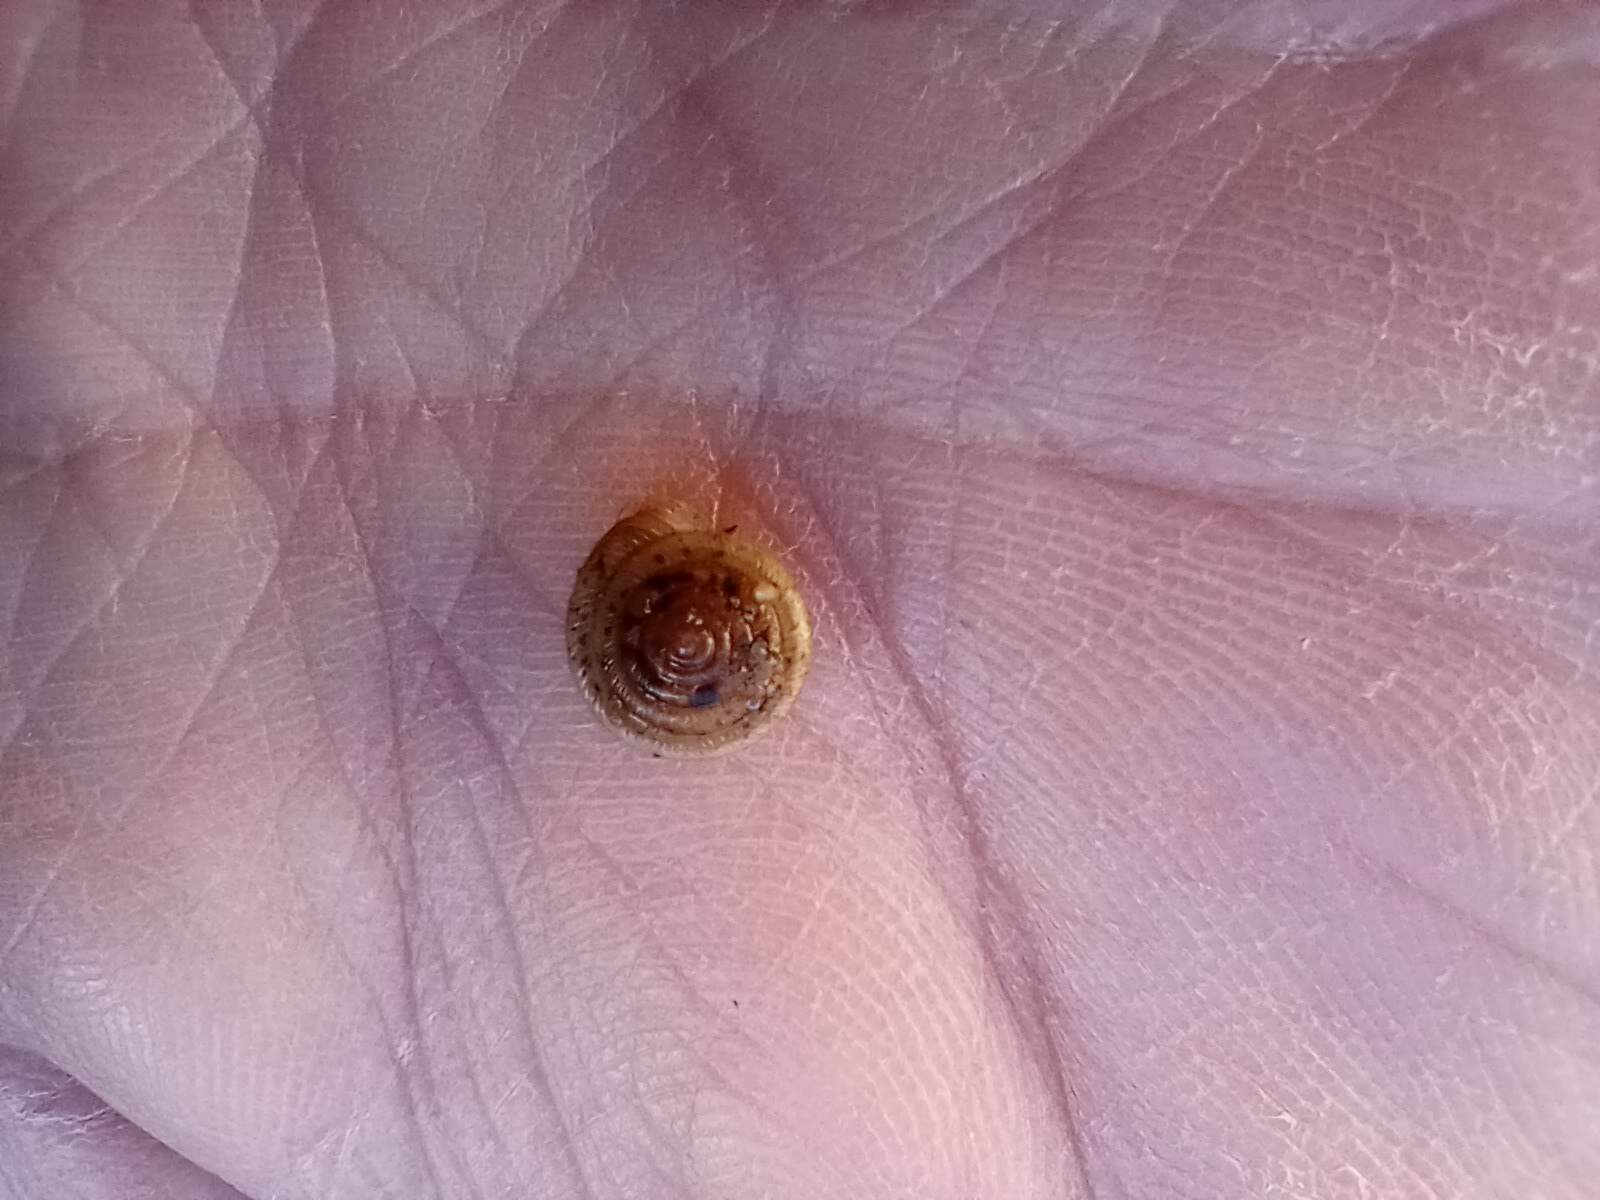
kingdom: Animalia
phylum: Mollusca
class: Gastropoda
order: Stylommatophora
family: Polygyridae
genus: Polygyra
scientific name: Polygyra cereolus
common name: Southern flatcone snail
